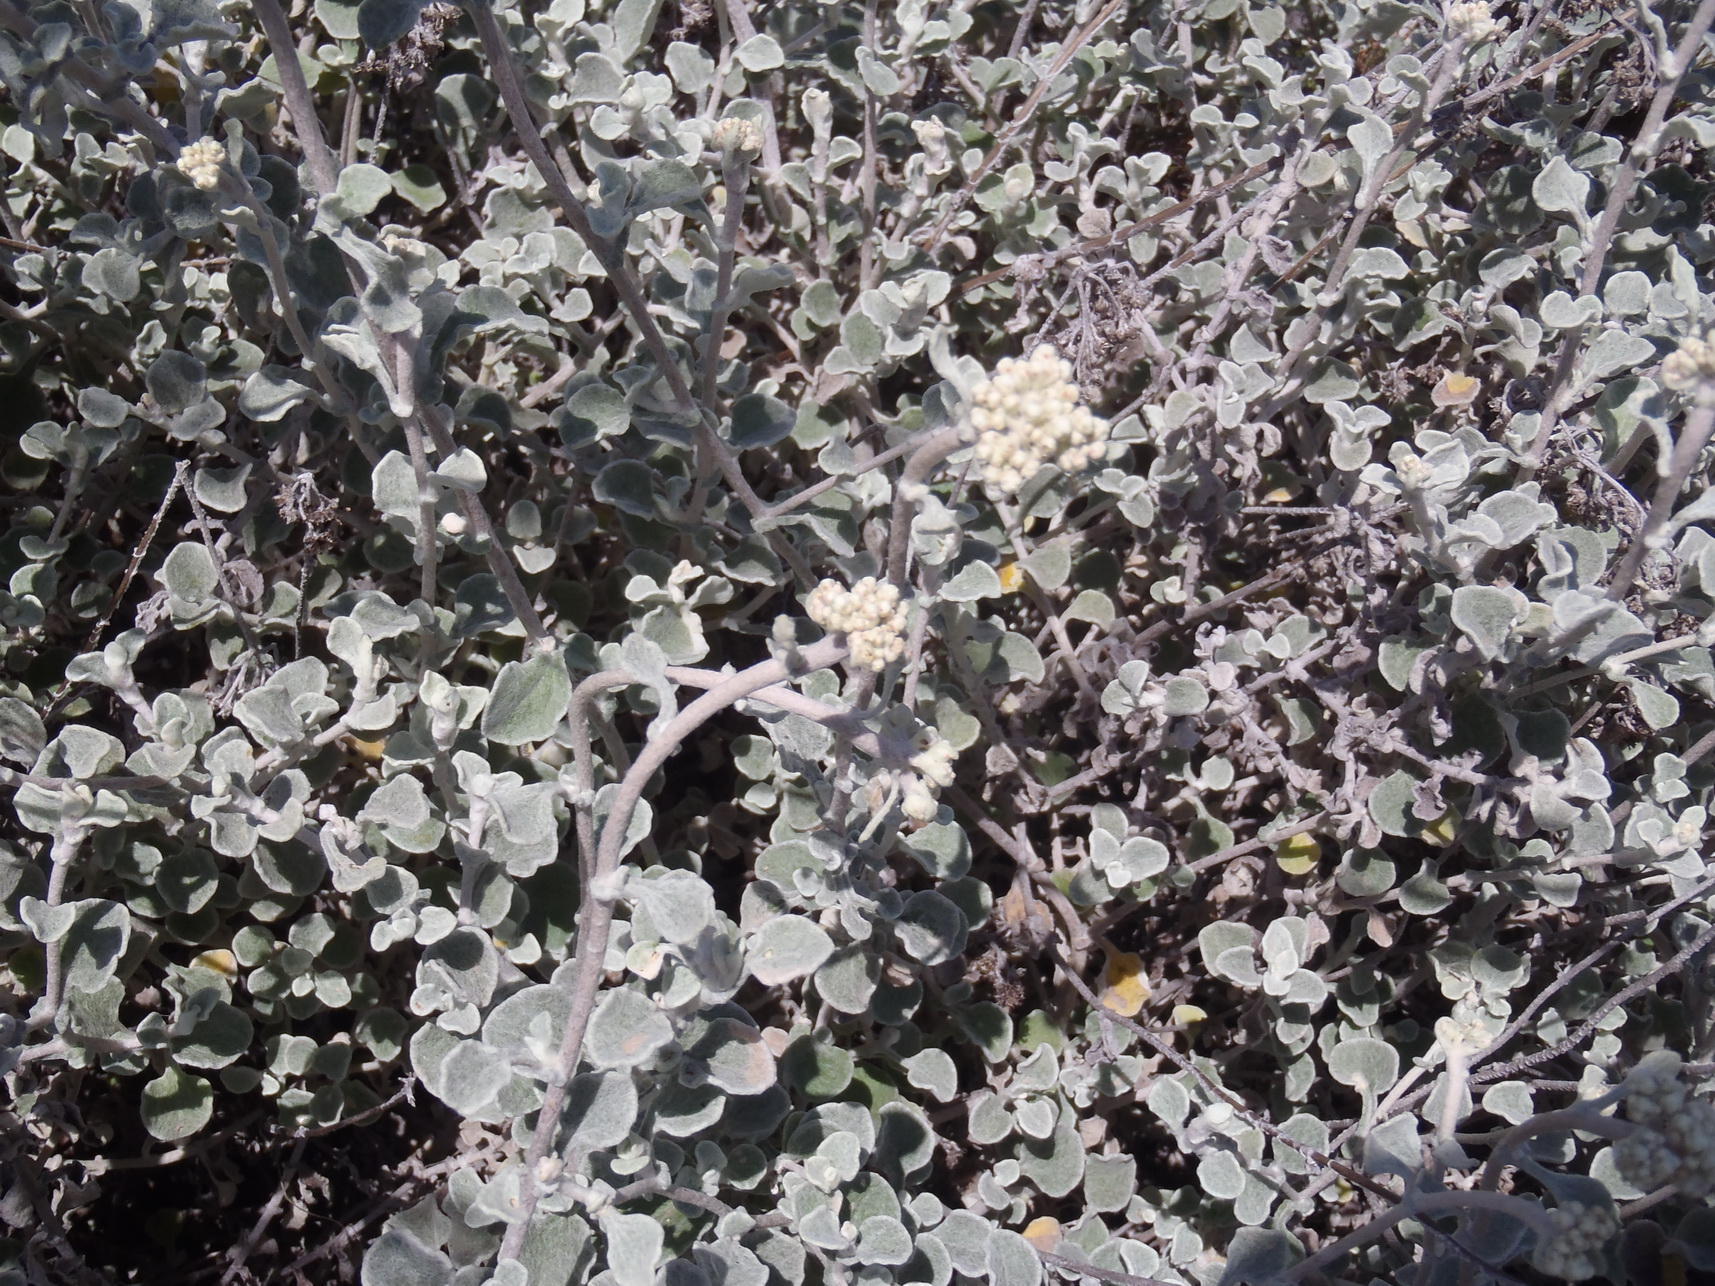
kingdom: Plantae
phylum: Tracheophyta
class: Magnoliopsida
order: Asterales
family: Asteraceae
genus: Helichrysum
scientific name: Helichrysum petiolare
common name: Licorice-plant
